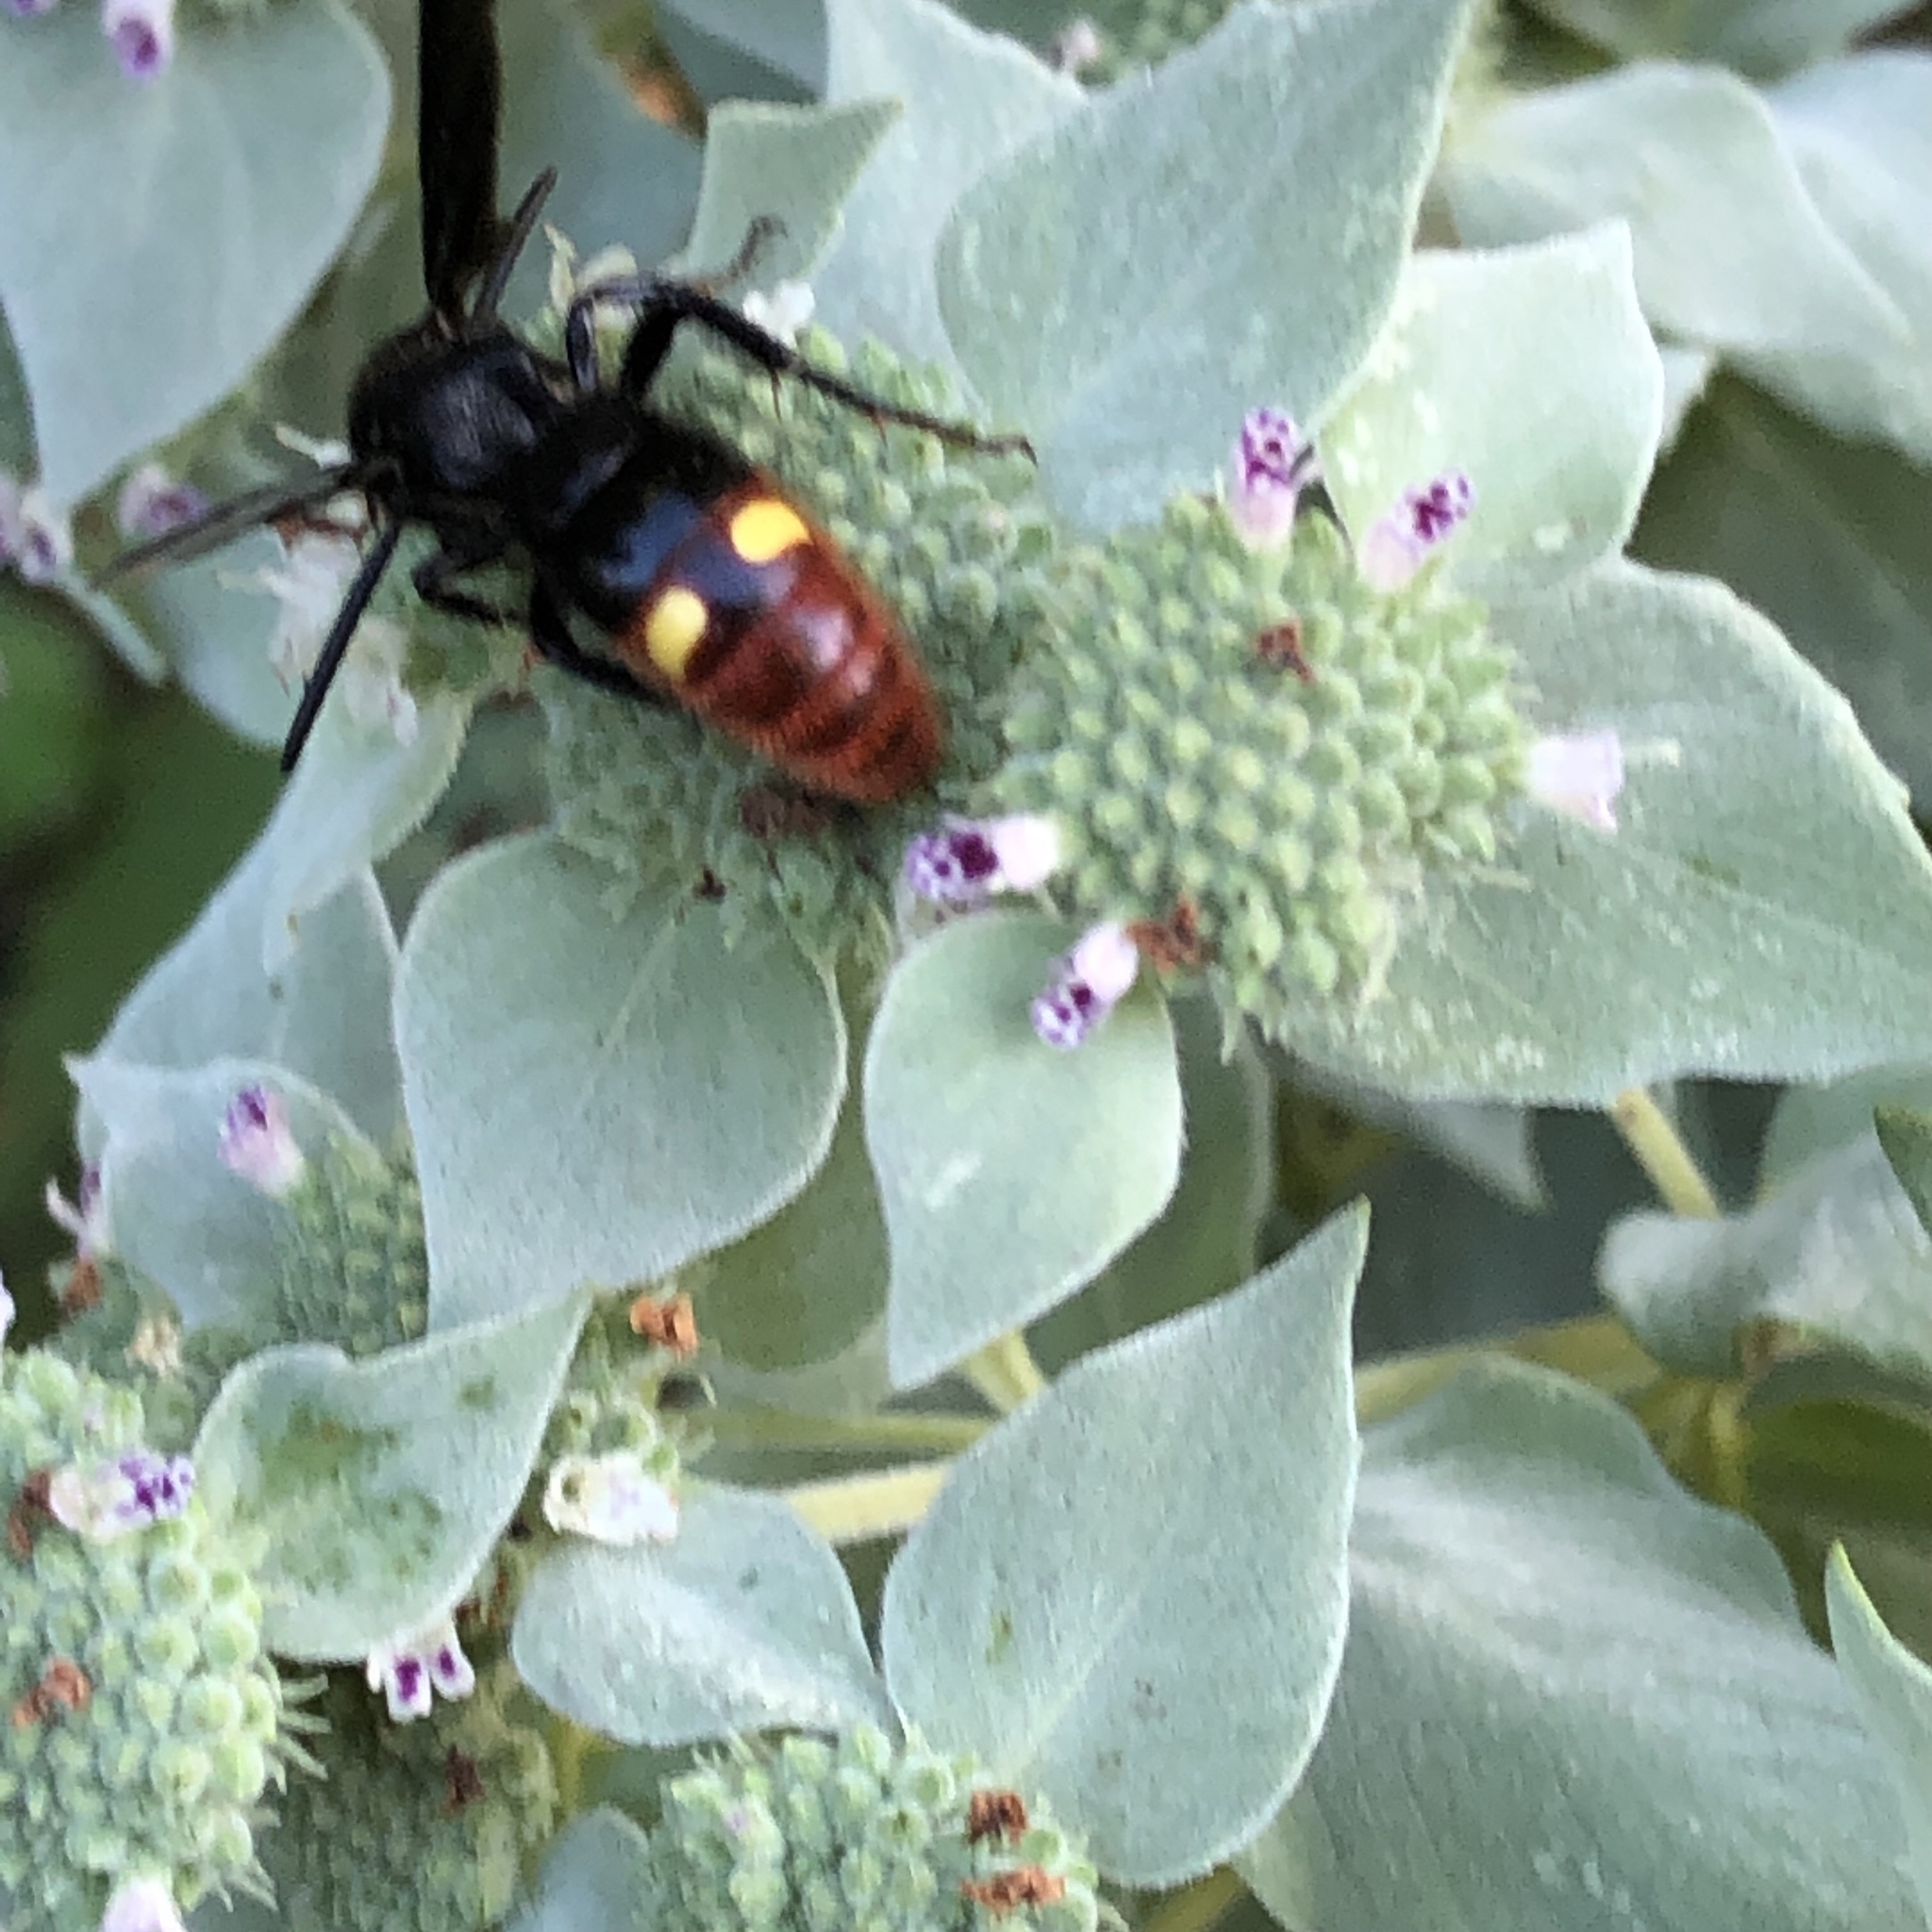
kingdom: Animalia
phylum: Arthropoda
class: Insecta
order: Hymenoptera
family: Scoliidae
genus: Scolia
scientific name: Scolia dubia
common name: Blue-winged scoliid wasp
